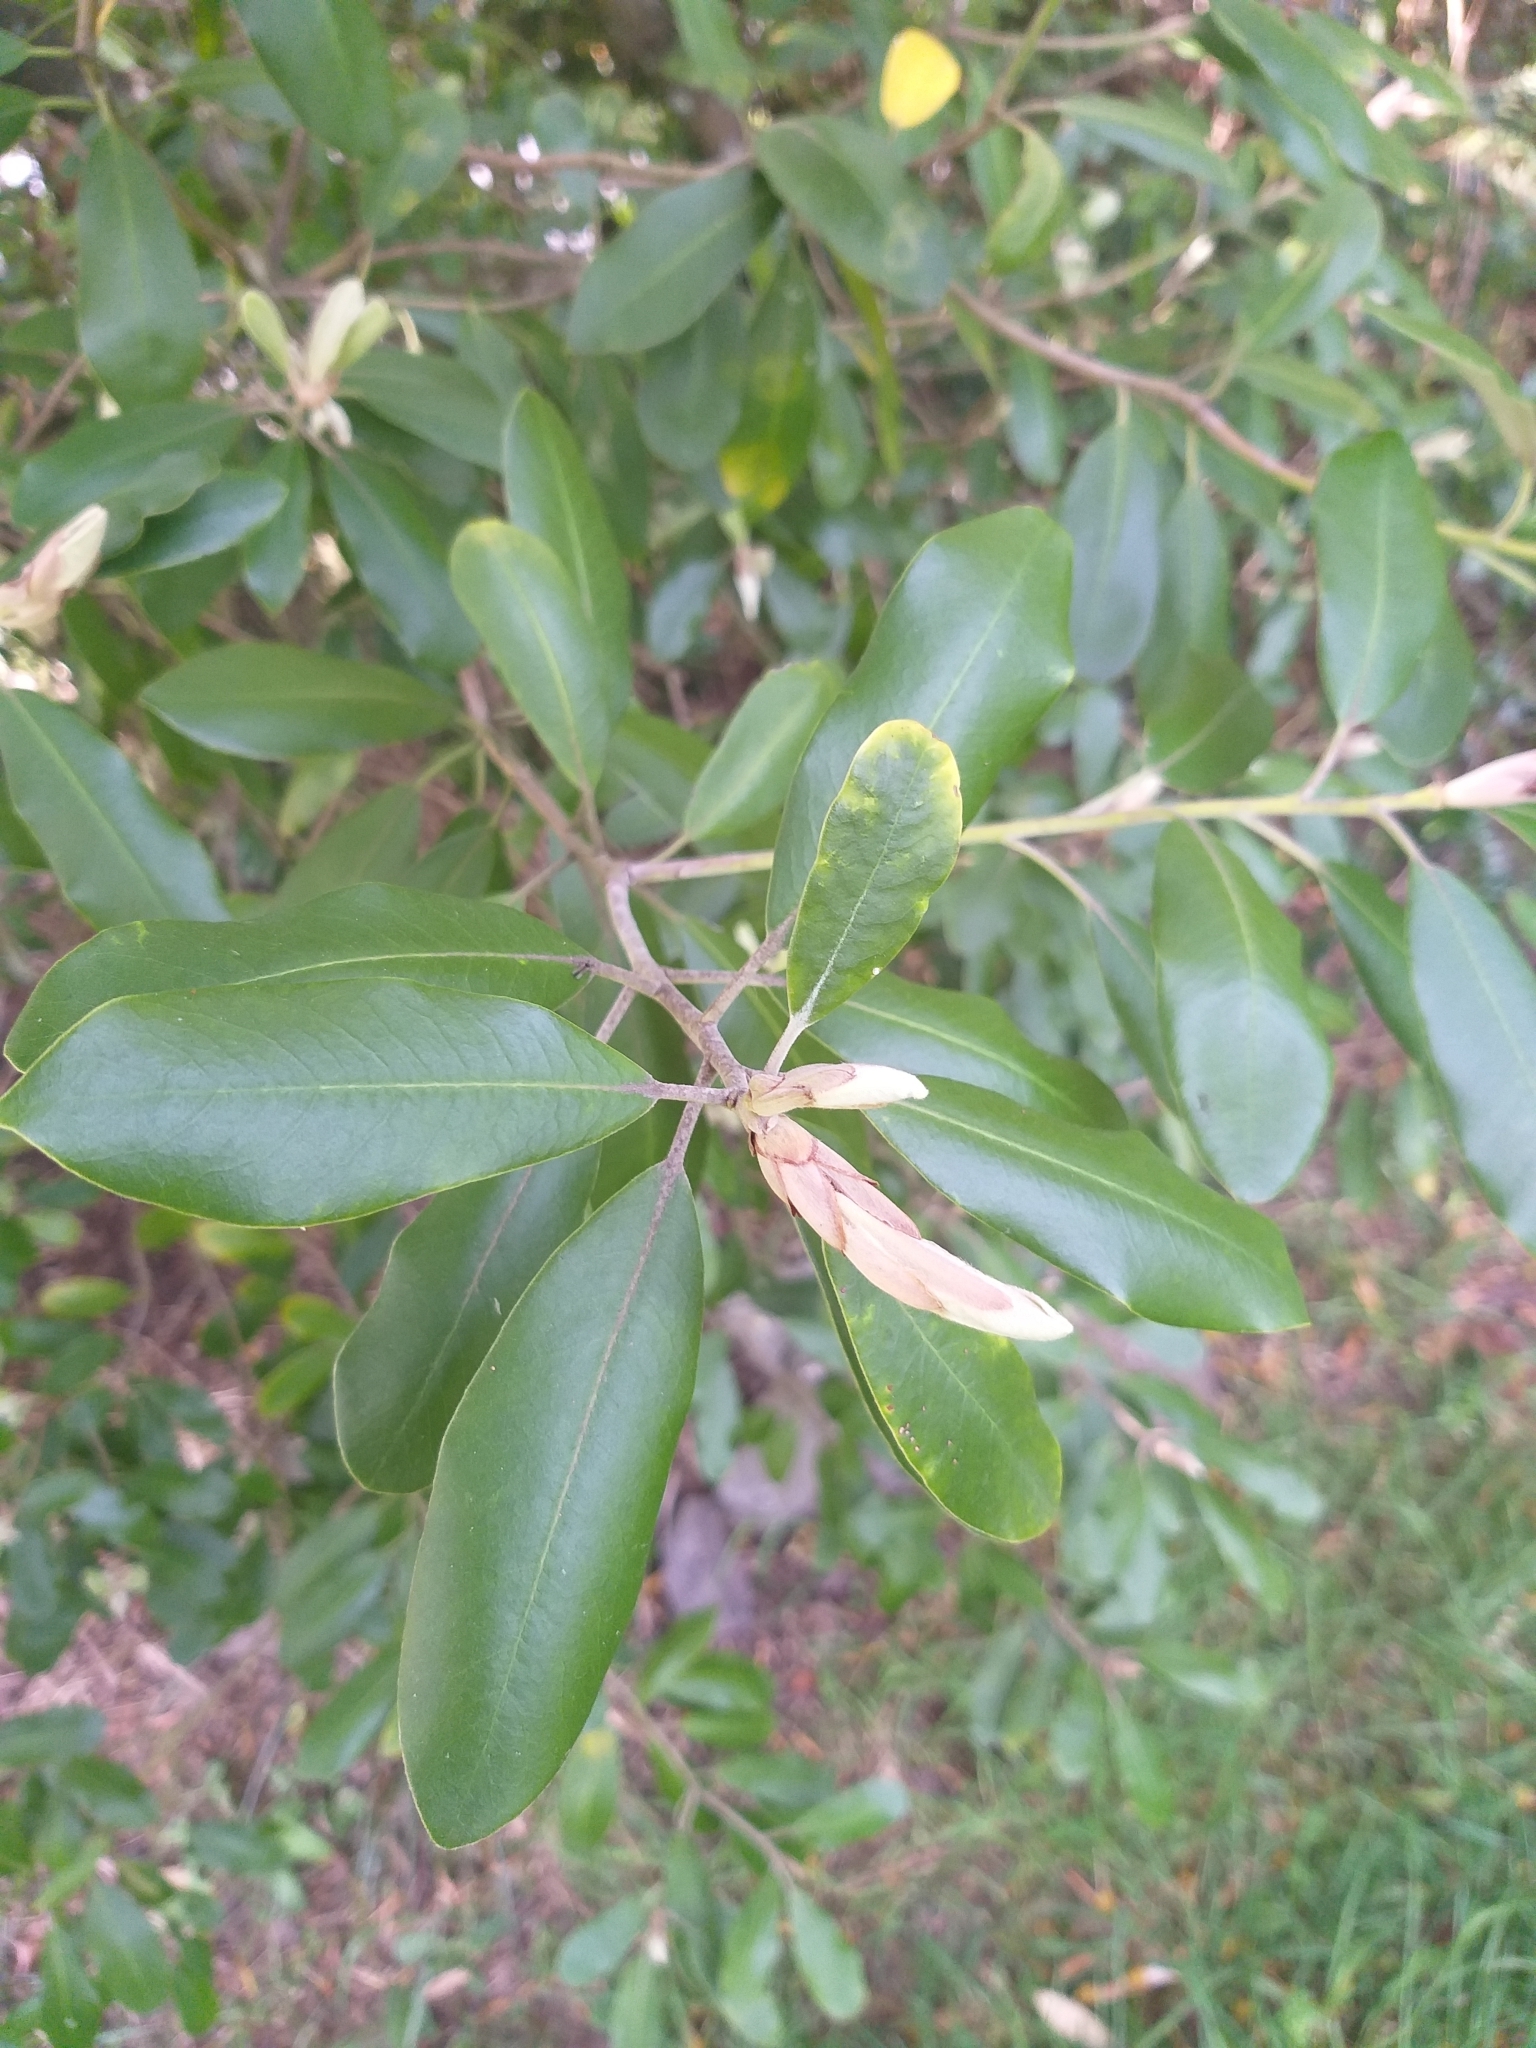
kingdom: Plantae
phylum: Tracheophyta
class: Magnoliopsida
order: Apiales
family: Pittosporaceae
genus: Pittosporum
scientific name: Pittosporum ralphii
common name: Ralph's desertwillow
